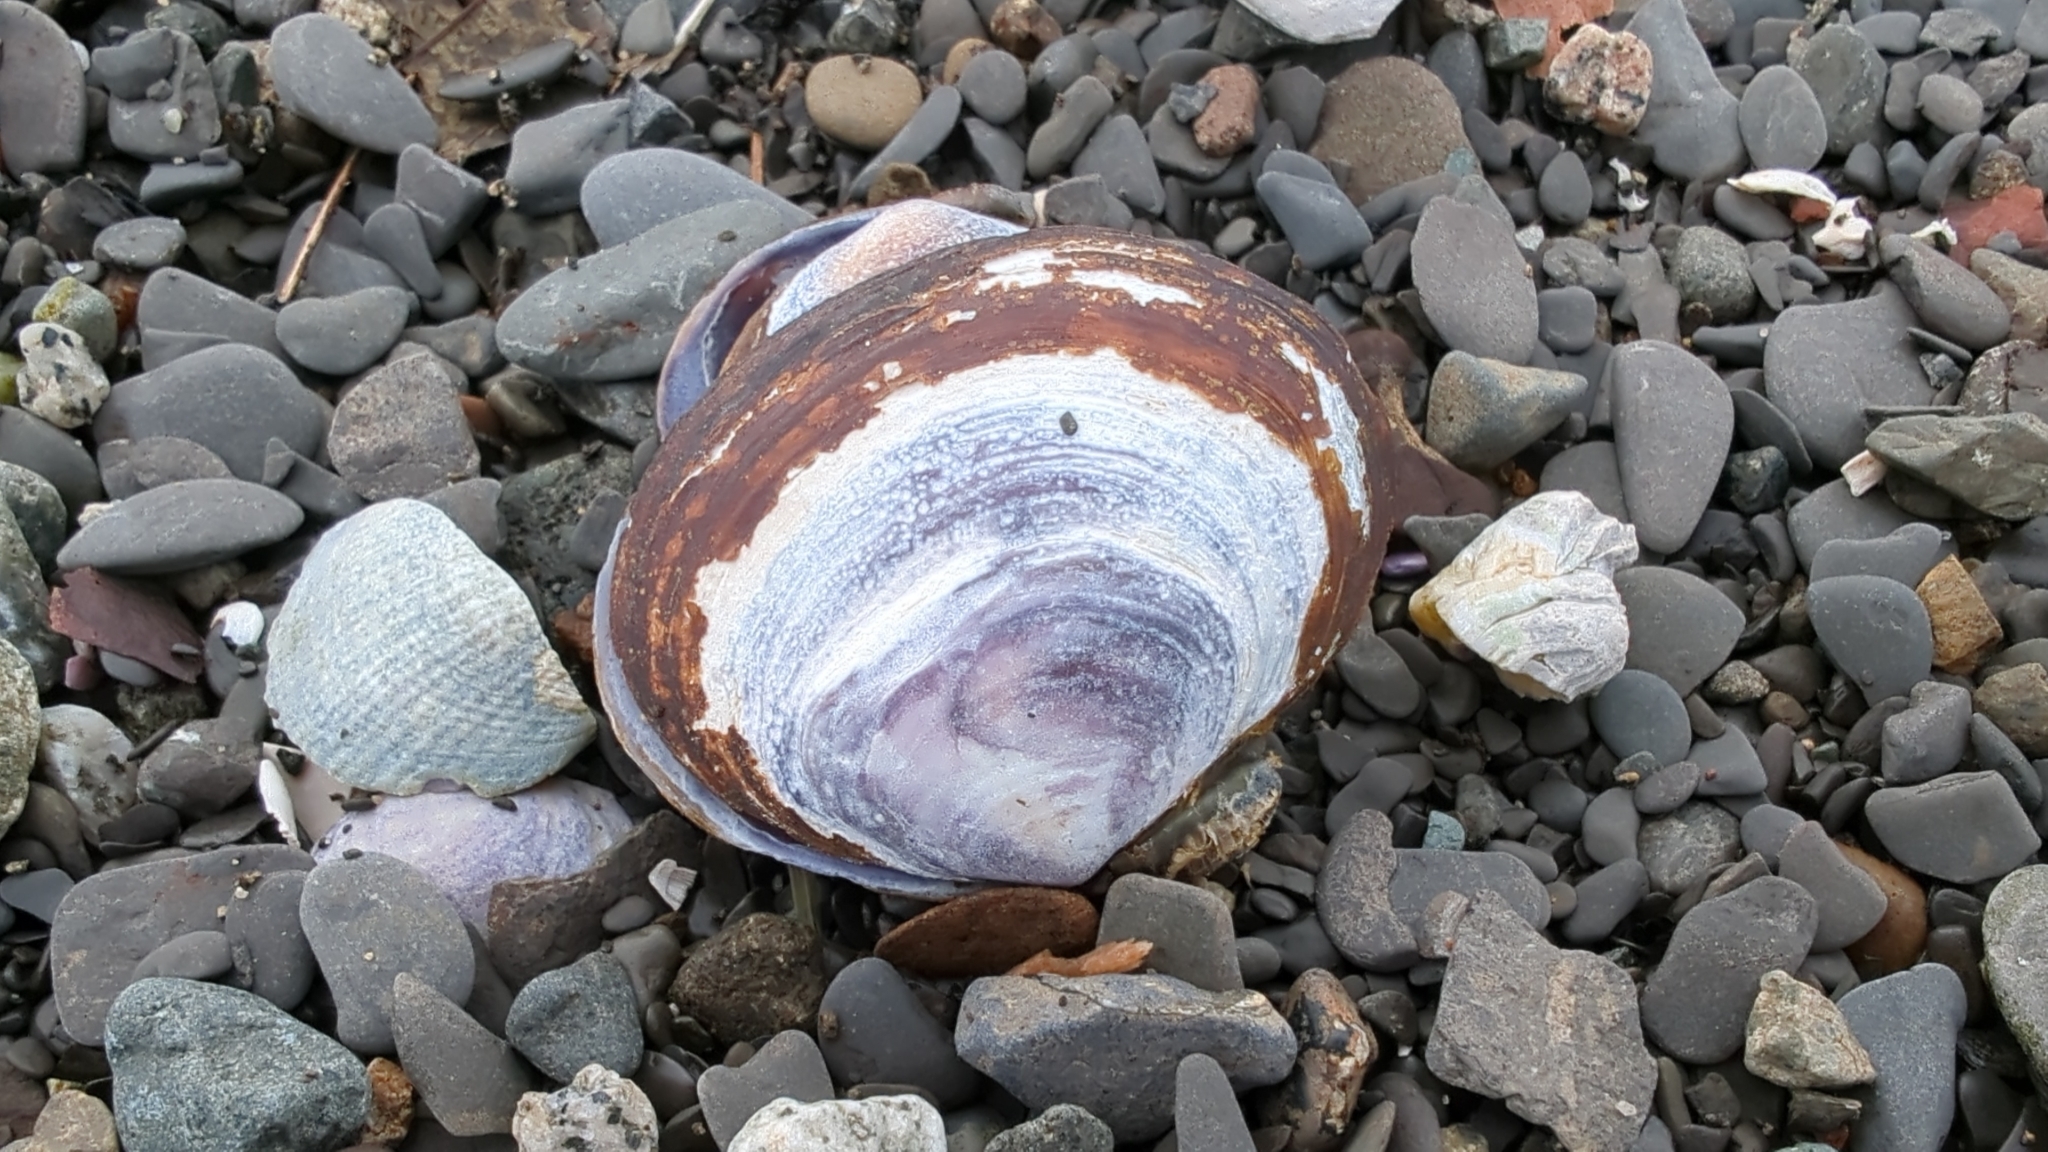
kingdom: Animalia
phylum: Mollusca
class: Bivalvia
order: Cardiida
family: Psammobiidae
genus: Nuttallia
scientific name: Nuttallia obscurata
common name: Purple mahogany-clam
